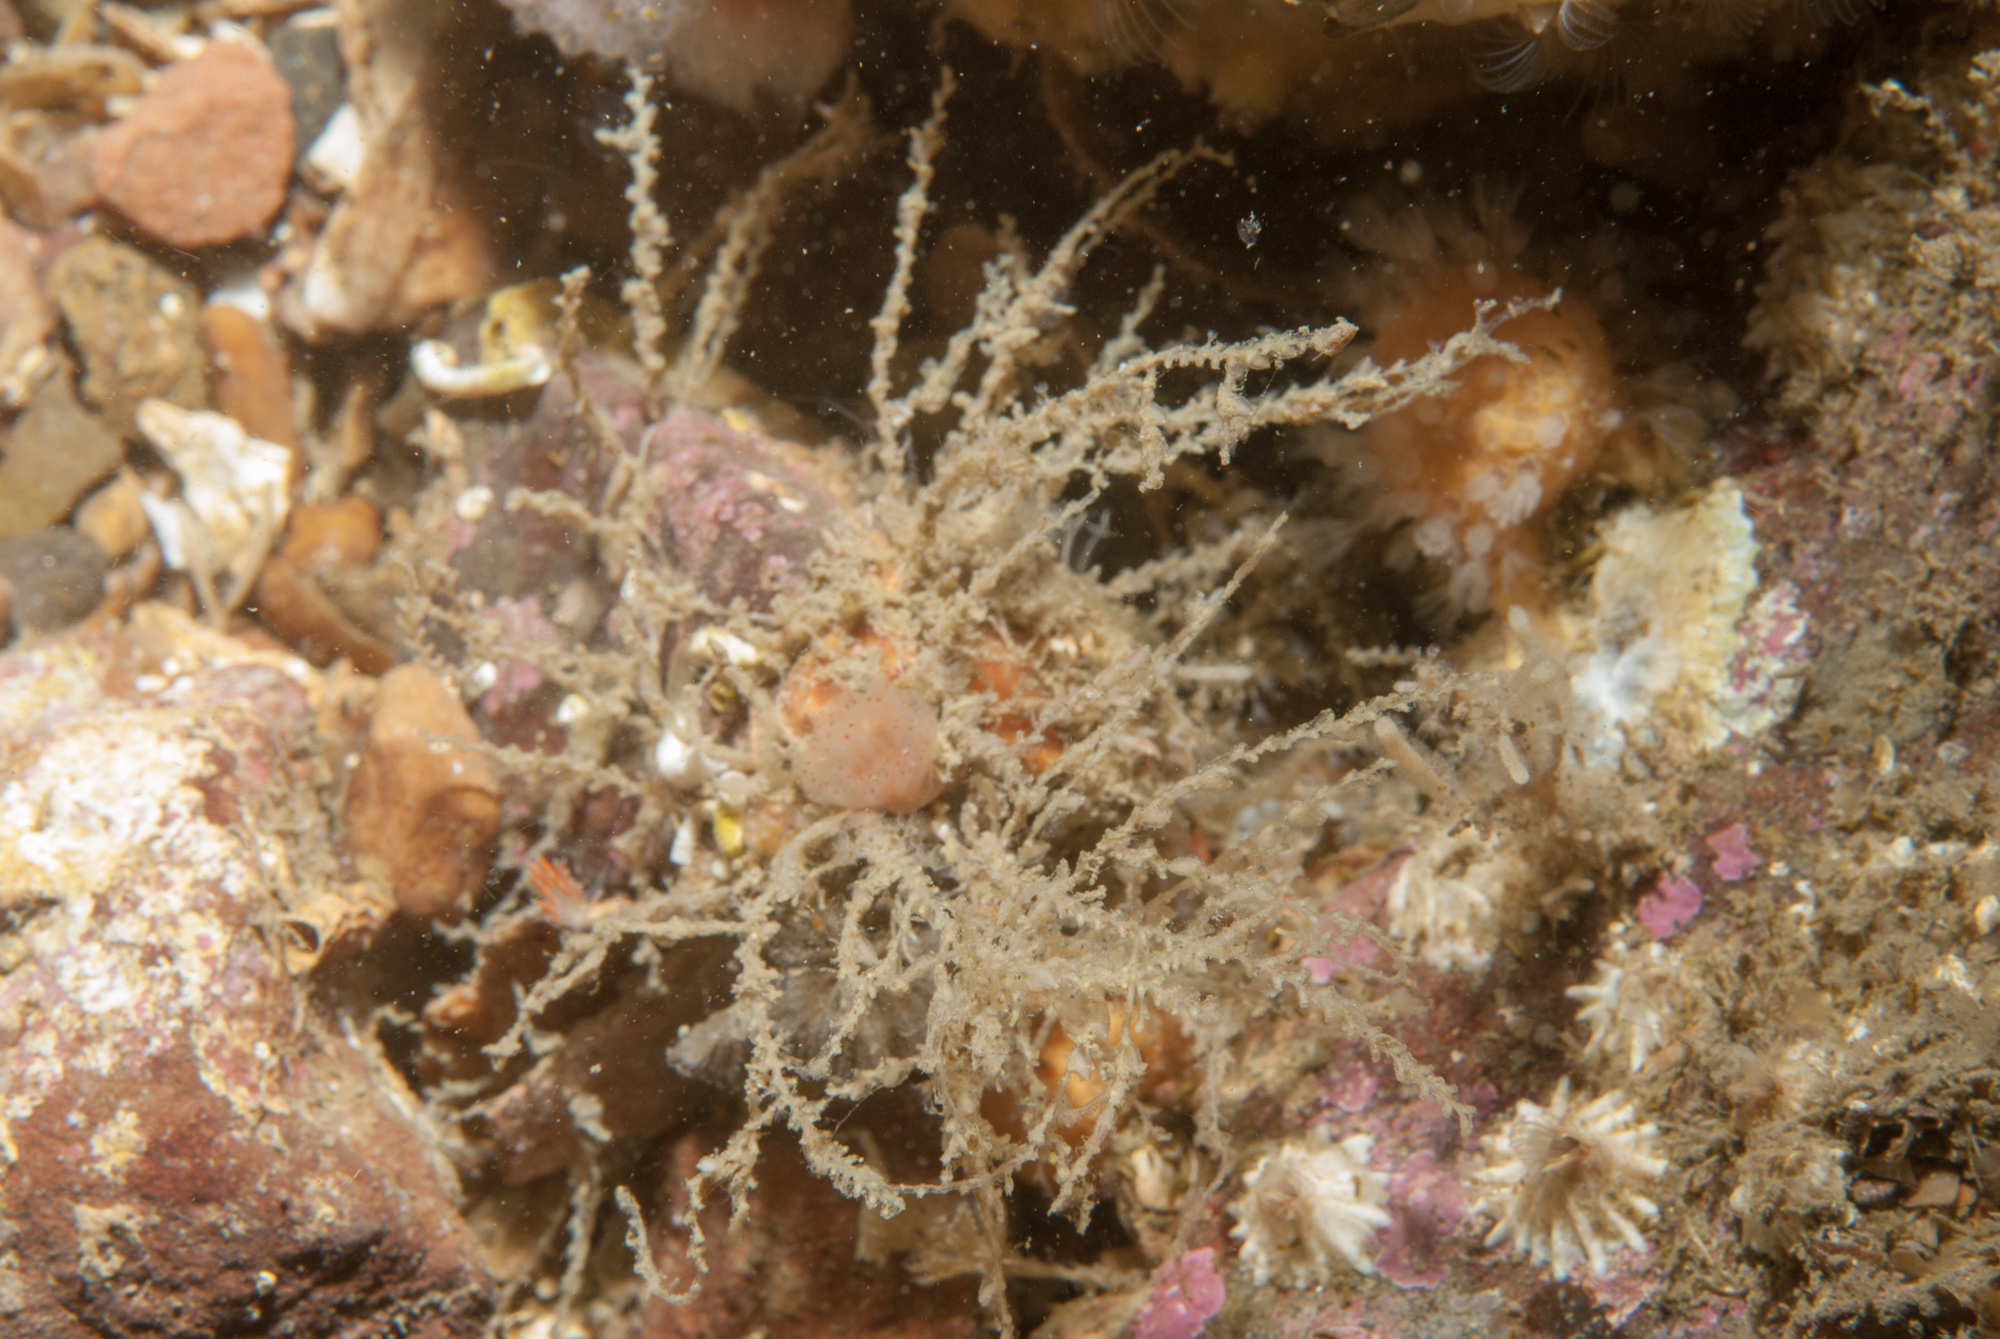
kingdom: Animalia
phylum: Cnidaria
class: Hydrozoa
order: Leptothecata
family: Sertularellidae
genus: Sertularella
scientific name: Sertularella polyzonias
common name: Great tooth hydroid
